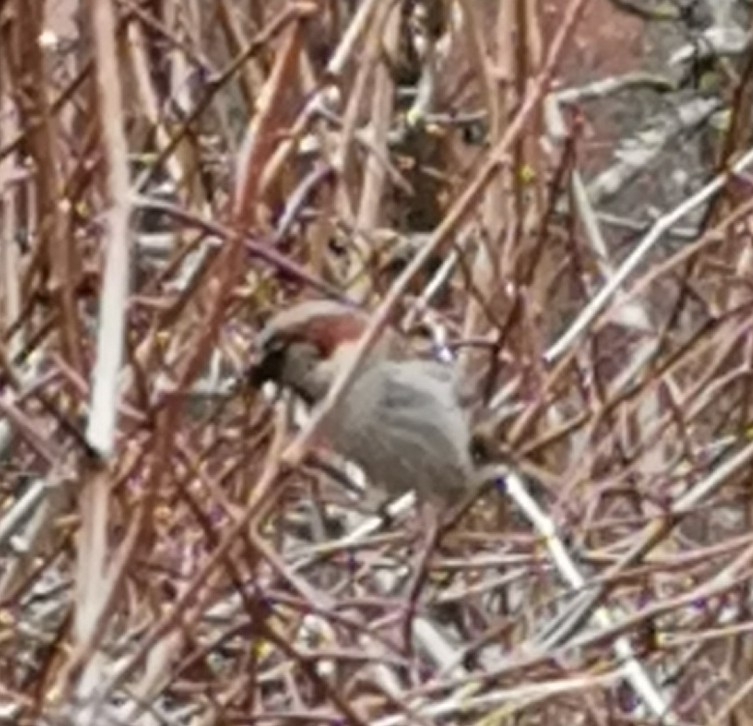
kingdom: Animalia
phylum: Chordata
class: Aves
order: Passeriformes
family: Passeridae
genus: Passer
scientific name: Passer domesticus
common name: House sparrow
